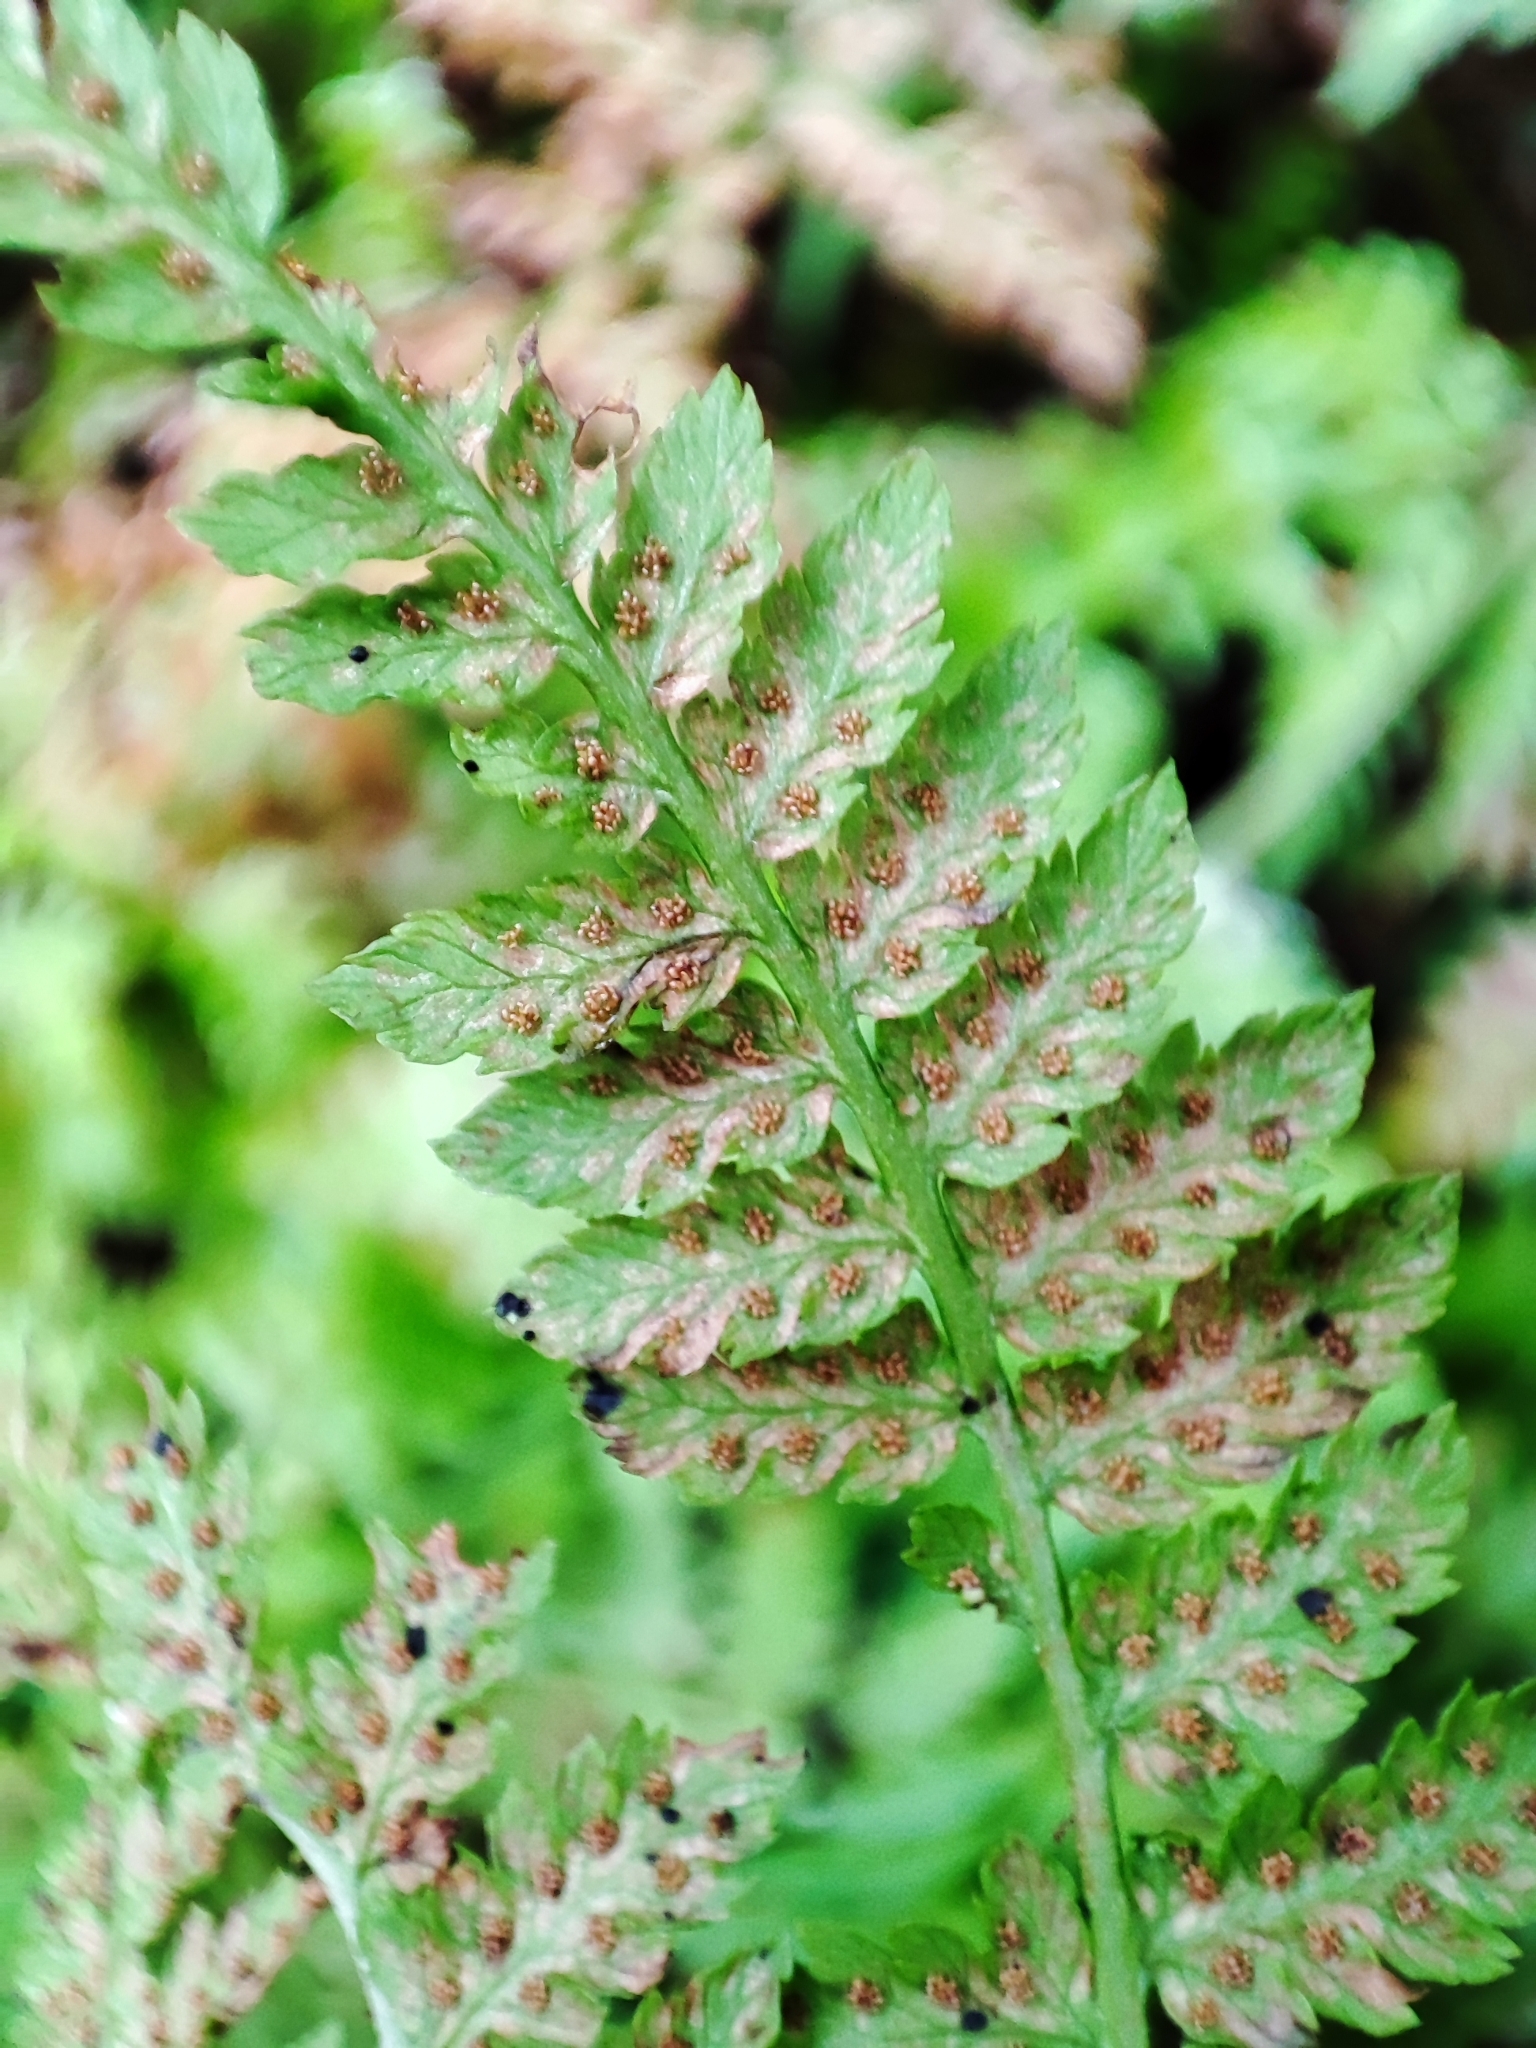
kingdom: Plantae
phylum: Tracheophyta
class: Polypodiopsida
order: Polypodiales
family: Dryopteridaceae
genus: Dryopteris
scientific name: Dryopteris expansa
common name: Northern buckler fern
